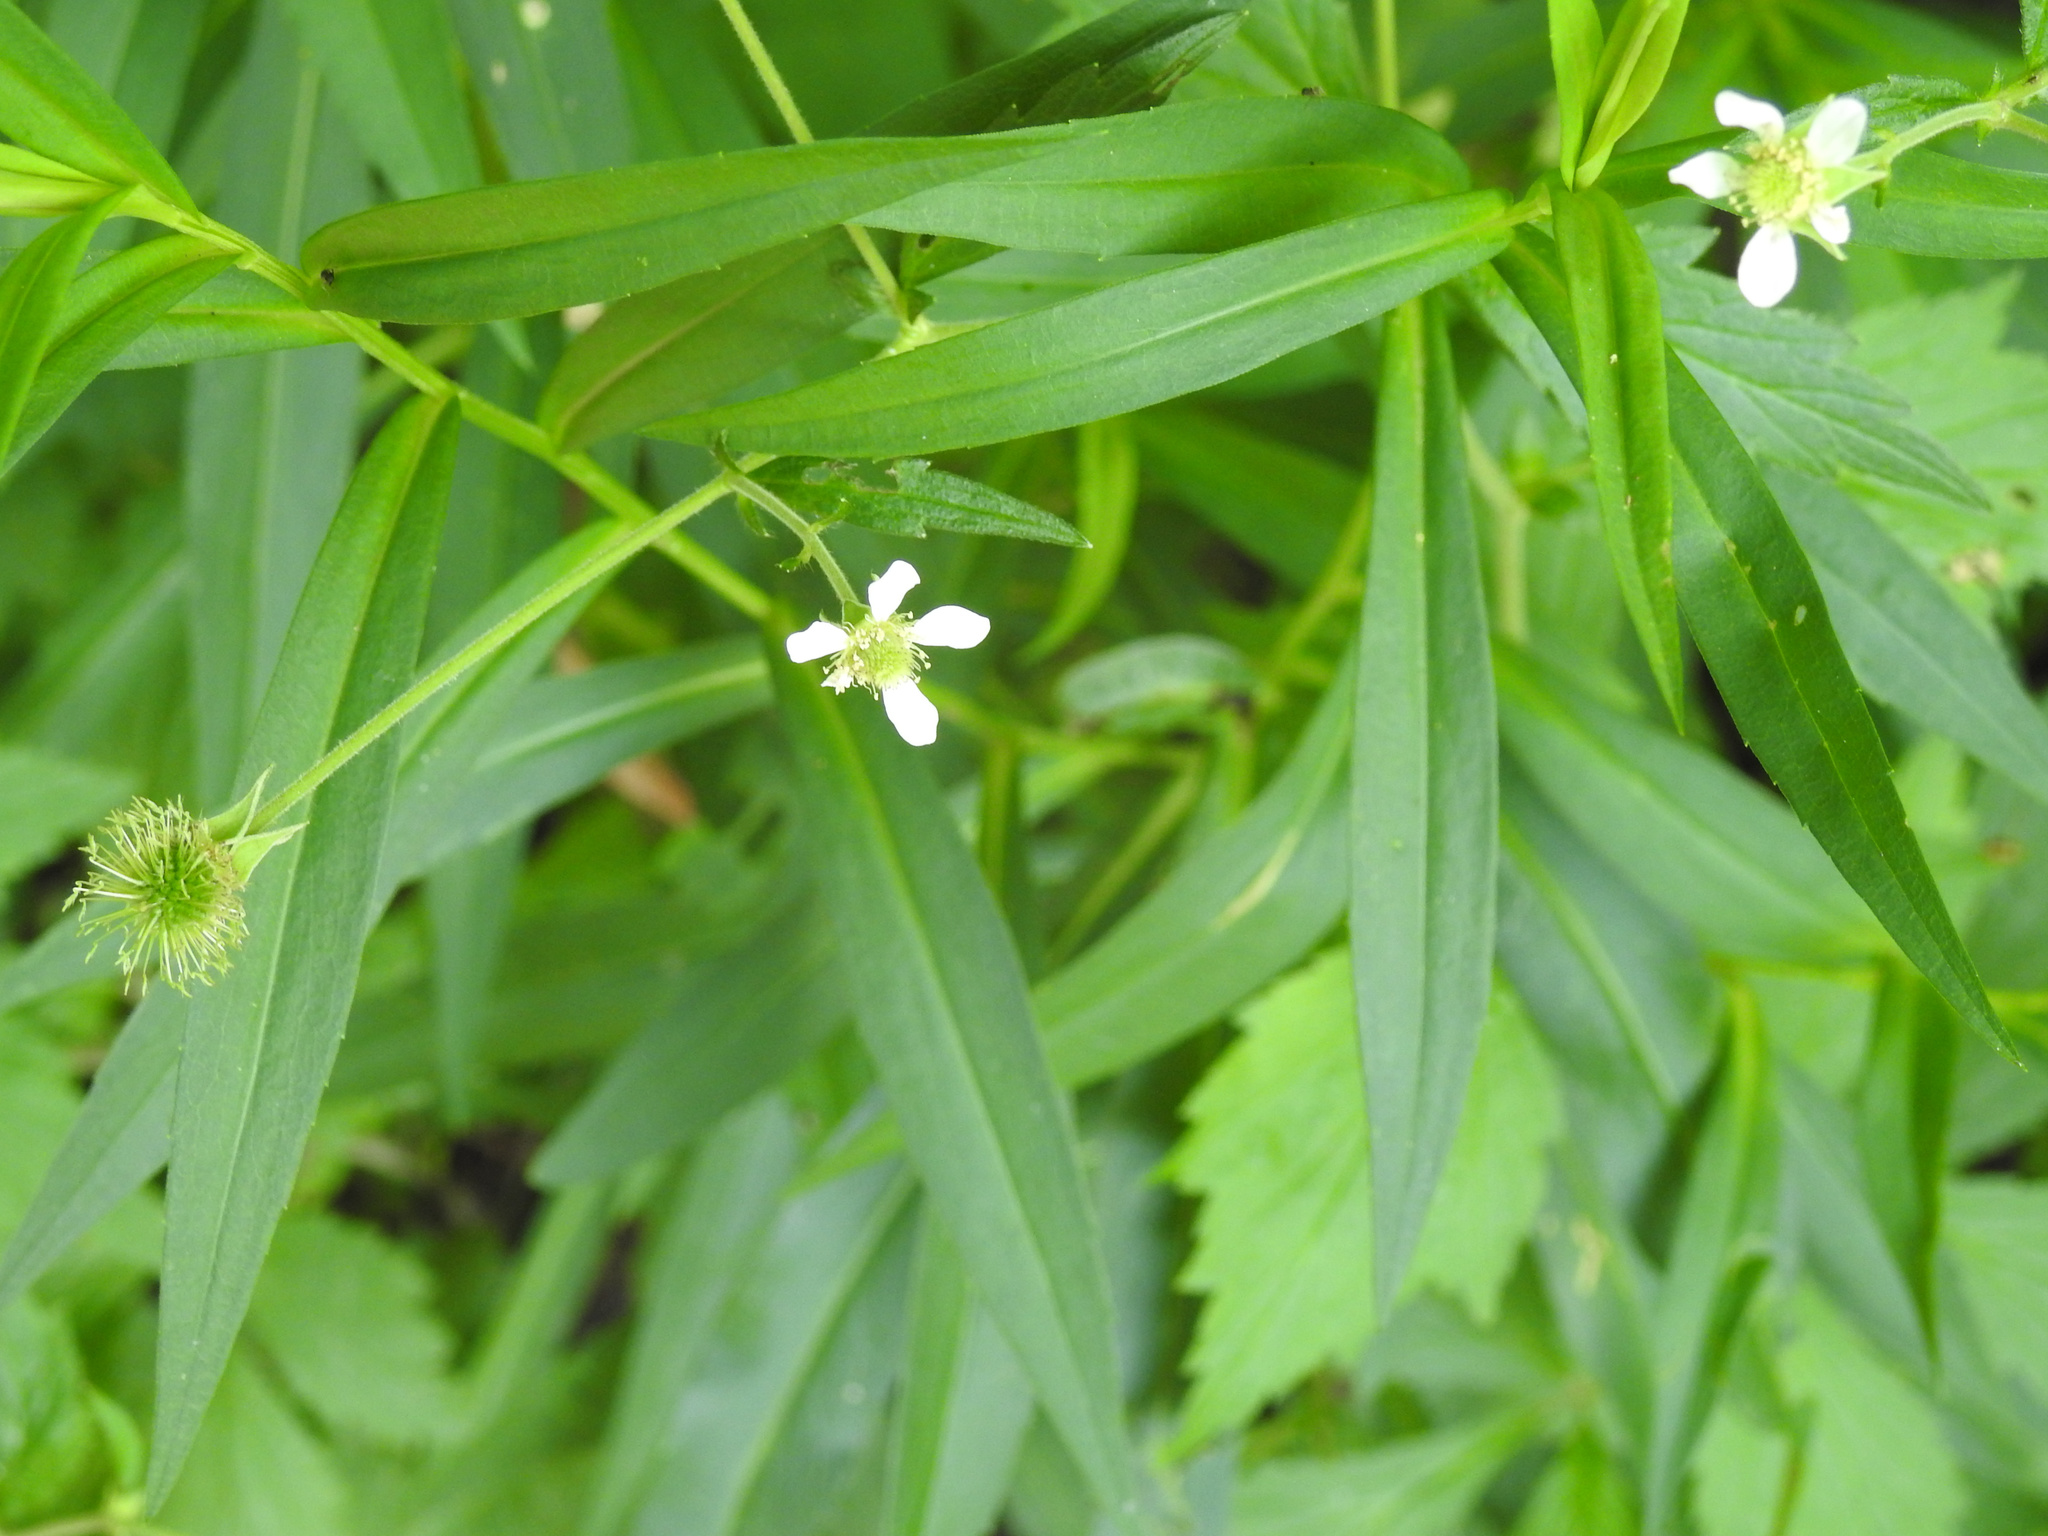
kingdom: Plantae
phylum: Tracheophyta
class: Magnoliopsida
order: Rosales
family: Rosaceae
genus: Geum
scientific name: Geum canadense
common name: White avens
